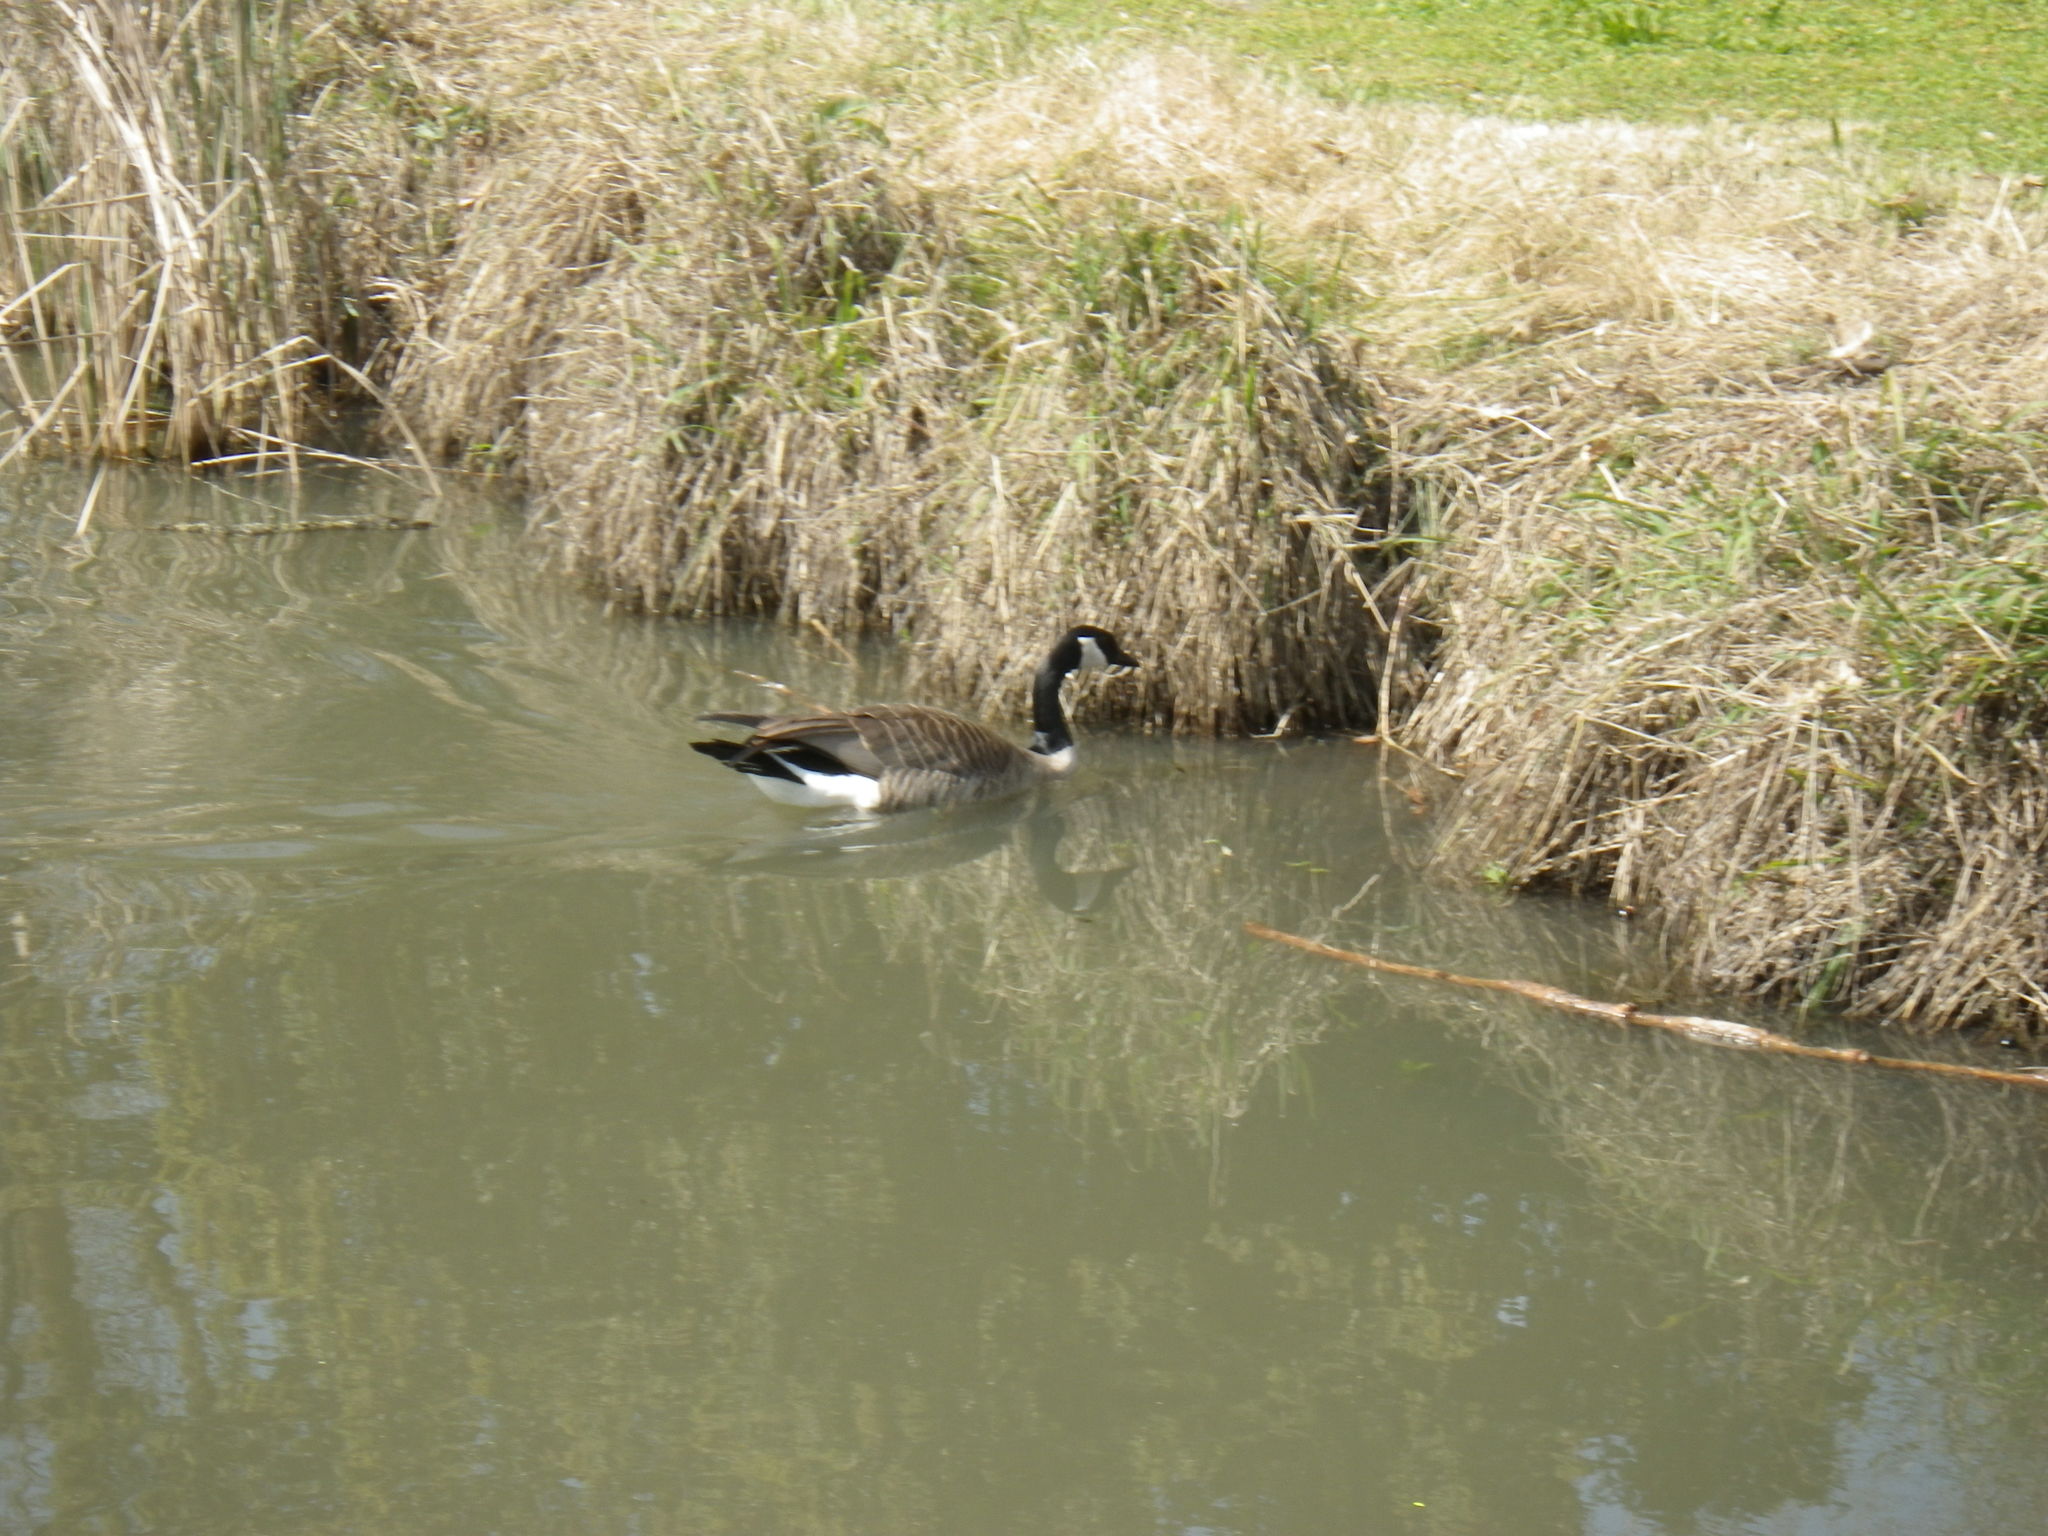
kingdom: Animalia
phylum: Chordata
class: Aves
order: Anseriformes
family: Anatidae
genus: Branta
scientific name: Branta canadensis
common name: Canada goose
